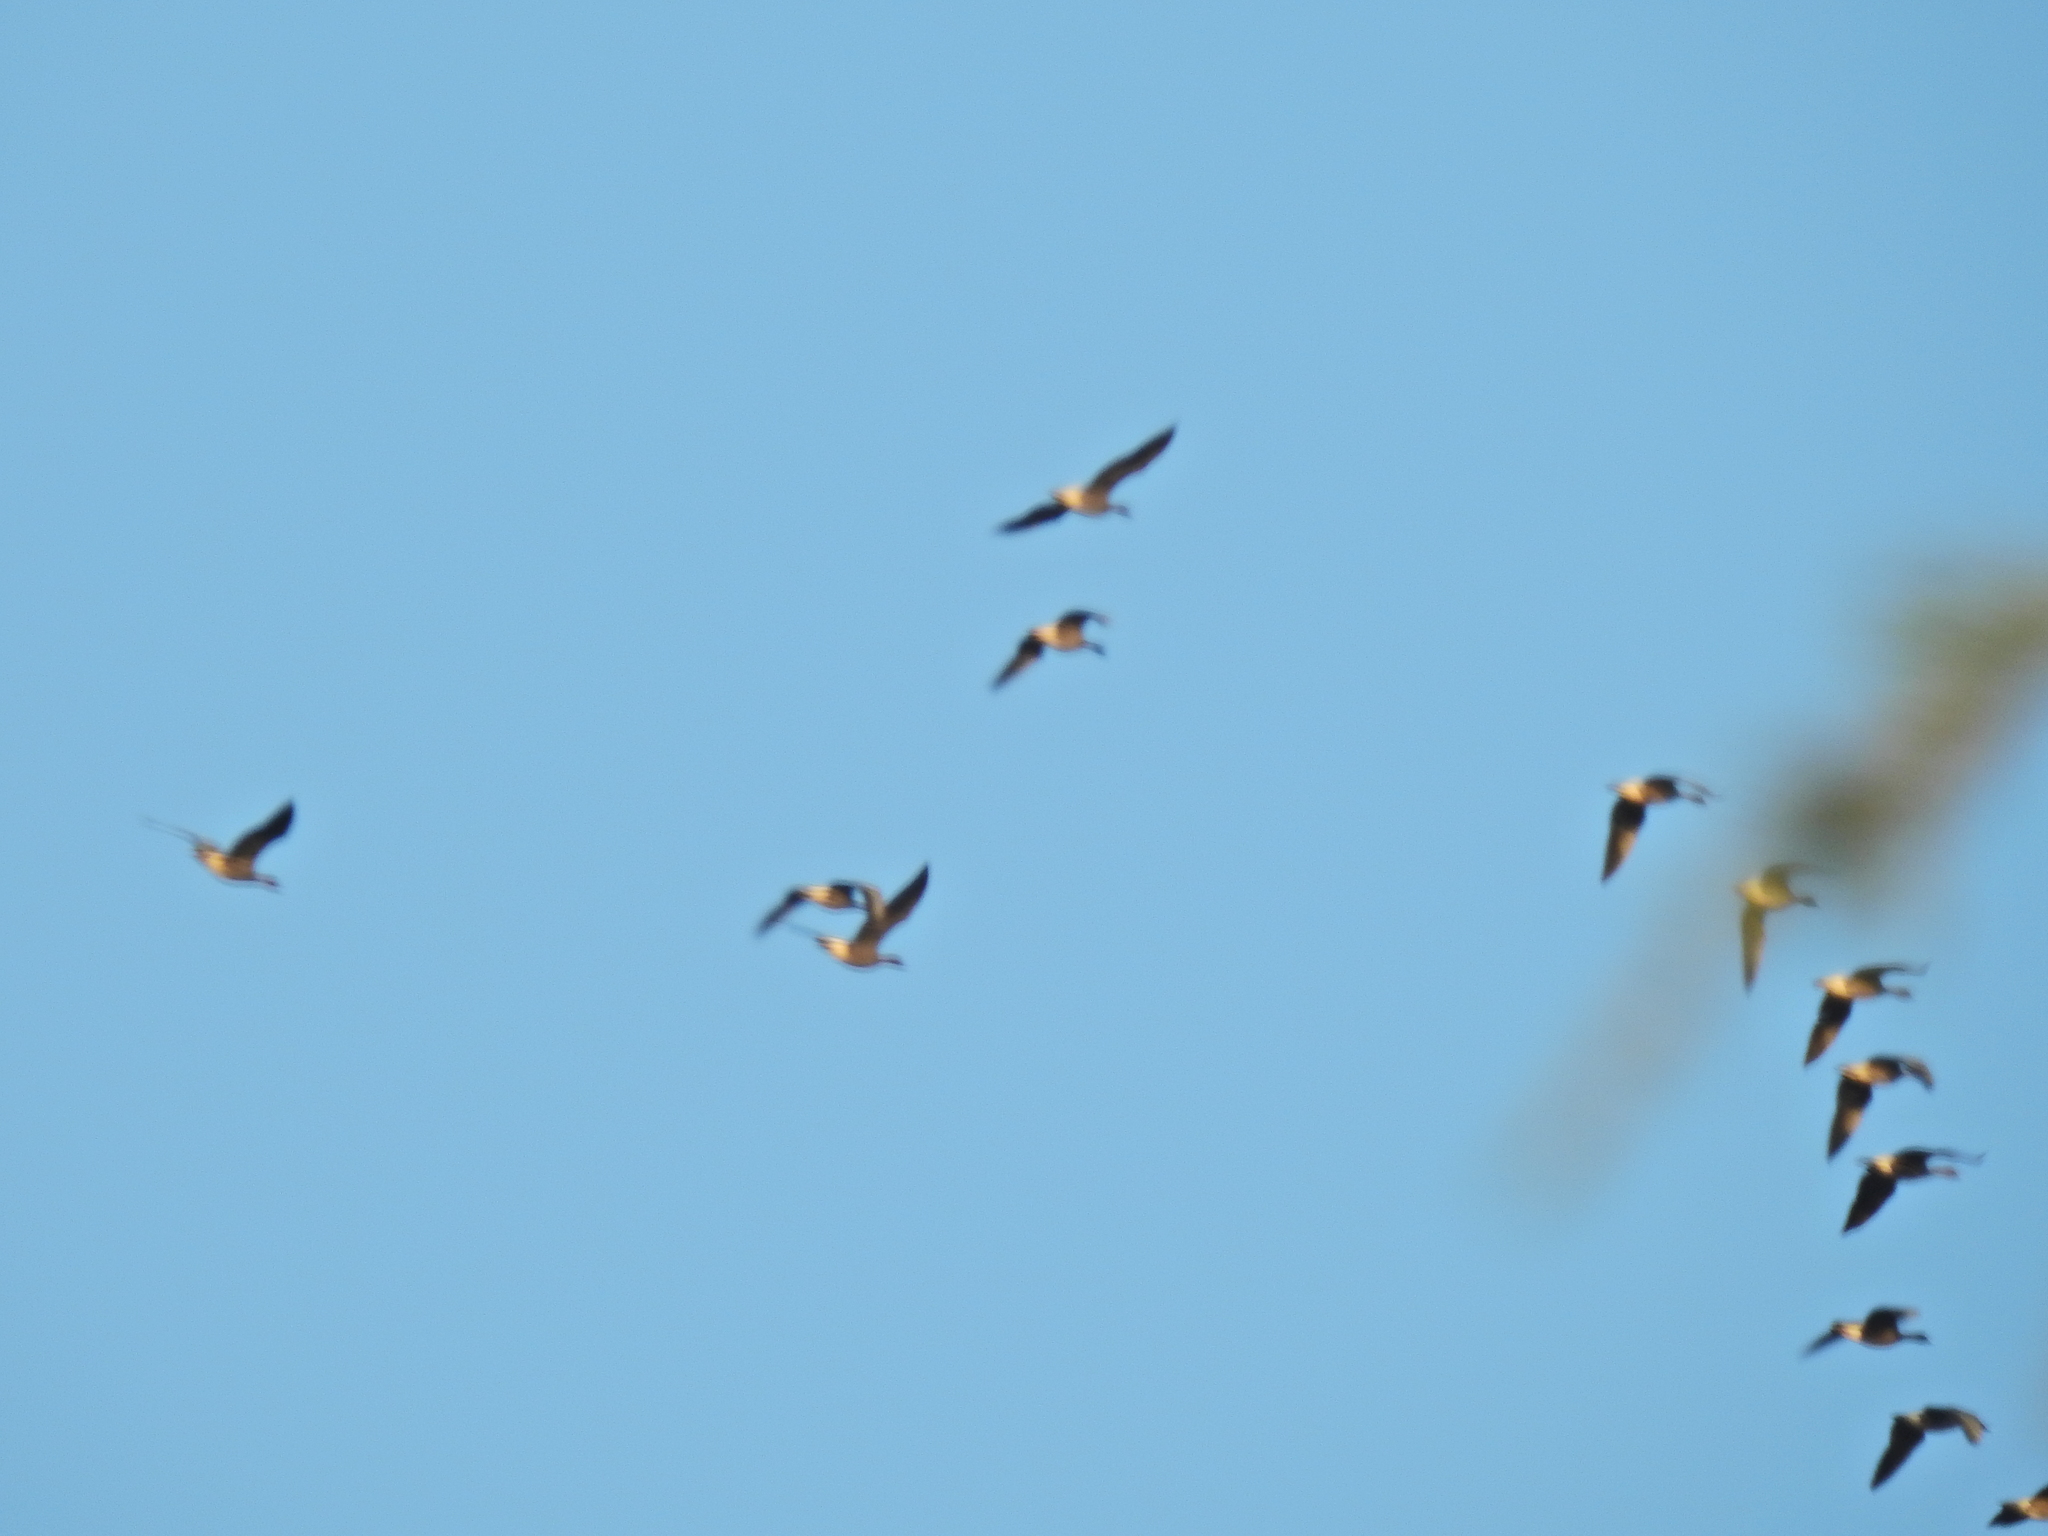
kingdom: Animalia
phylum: Chordata
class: Aves
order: Anseriformes
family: Anatidae
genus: Anser
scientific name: Anser brachyrhynchus
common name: Pink-footed goose
